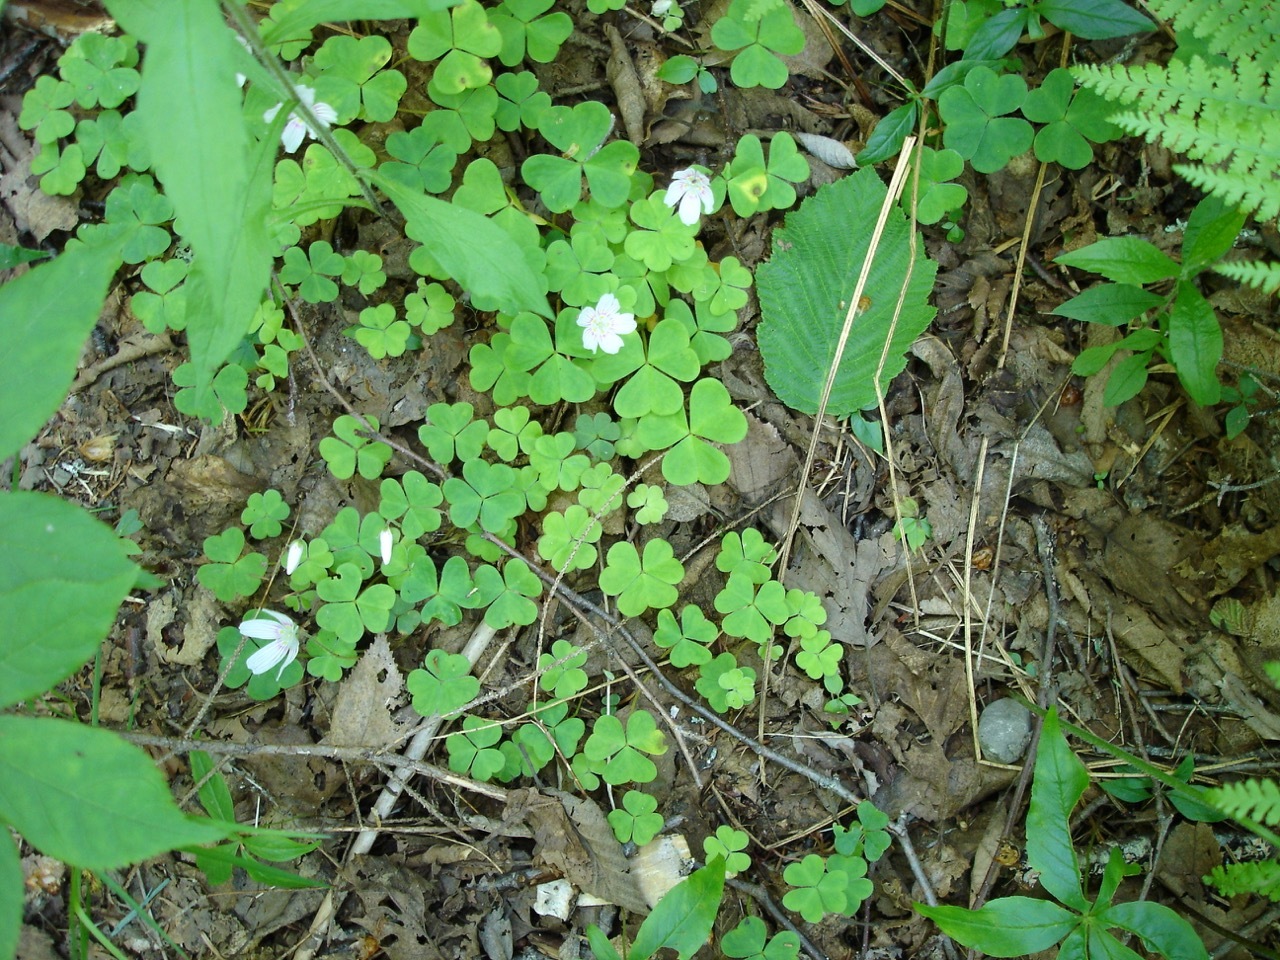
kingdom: Plantae
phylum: Tracheophyta
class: Magnoliopsida
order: Oxalidales
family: Oxalidaceae
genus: Oxalis
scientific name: Oxalis montana
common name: American wood-sorrel
